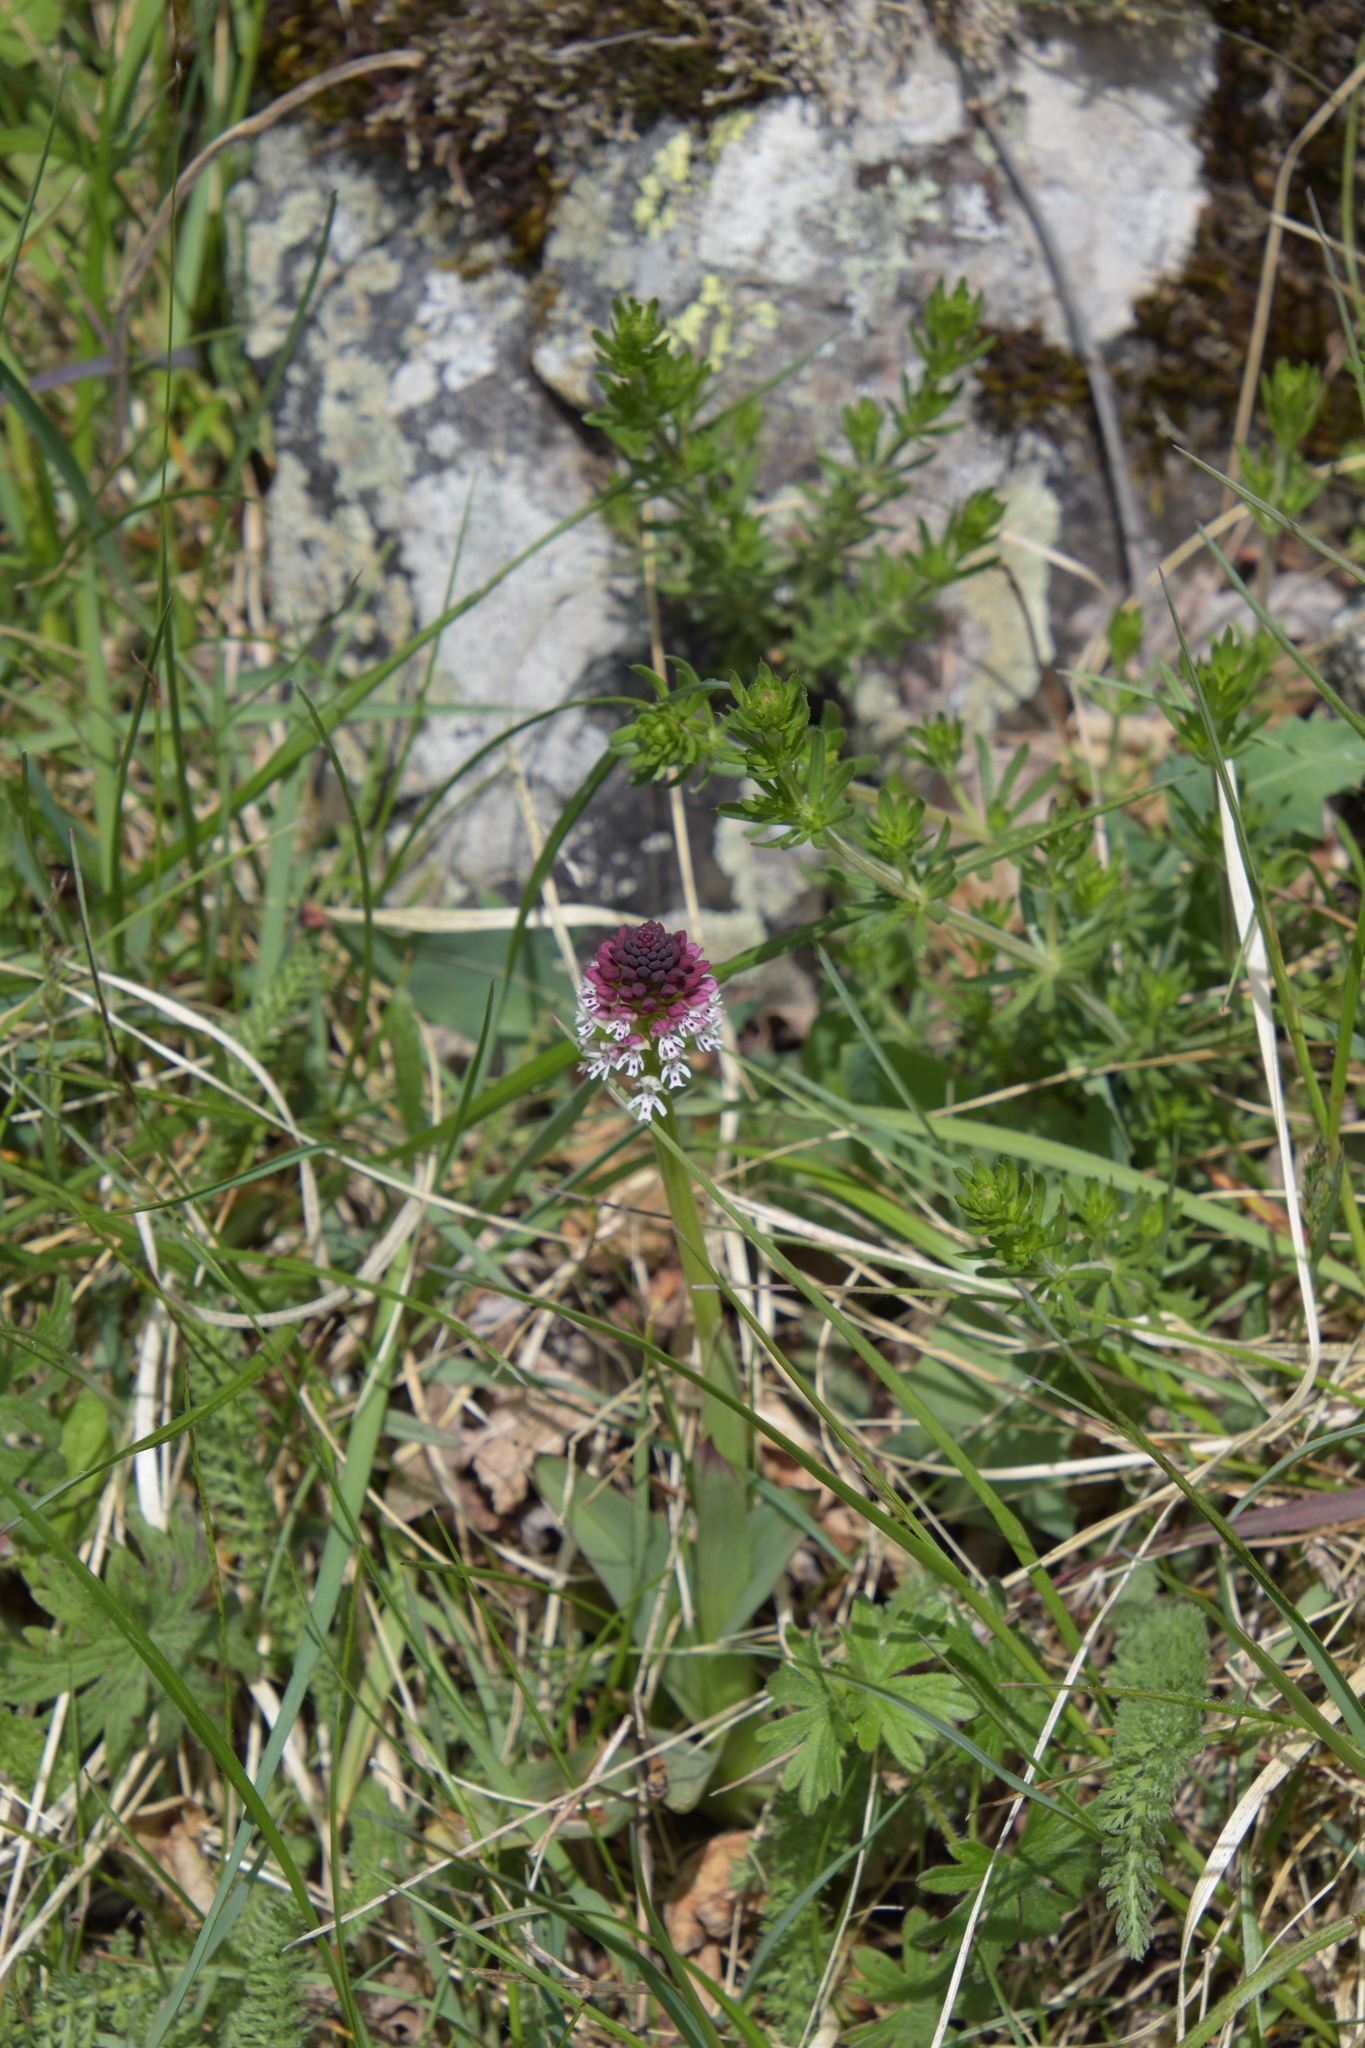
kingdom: Plantae
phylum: Tracheophyta
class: Liliopsida
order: Asparagales
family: Orchidaceae
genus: Neotinea
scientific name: Neotinea ustulata
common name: Burnt orchid
